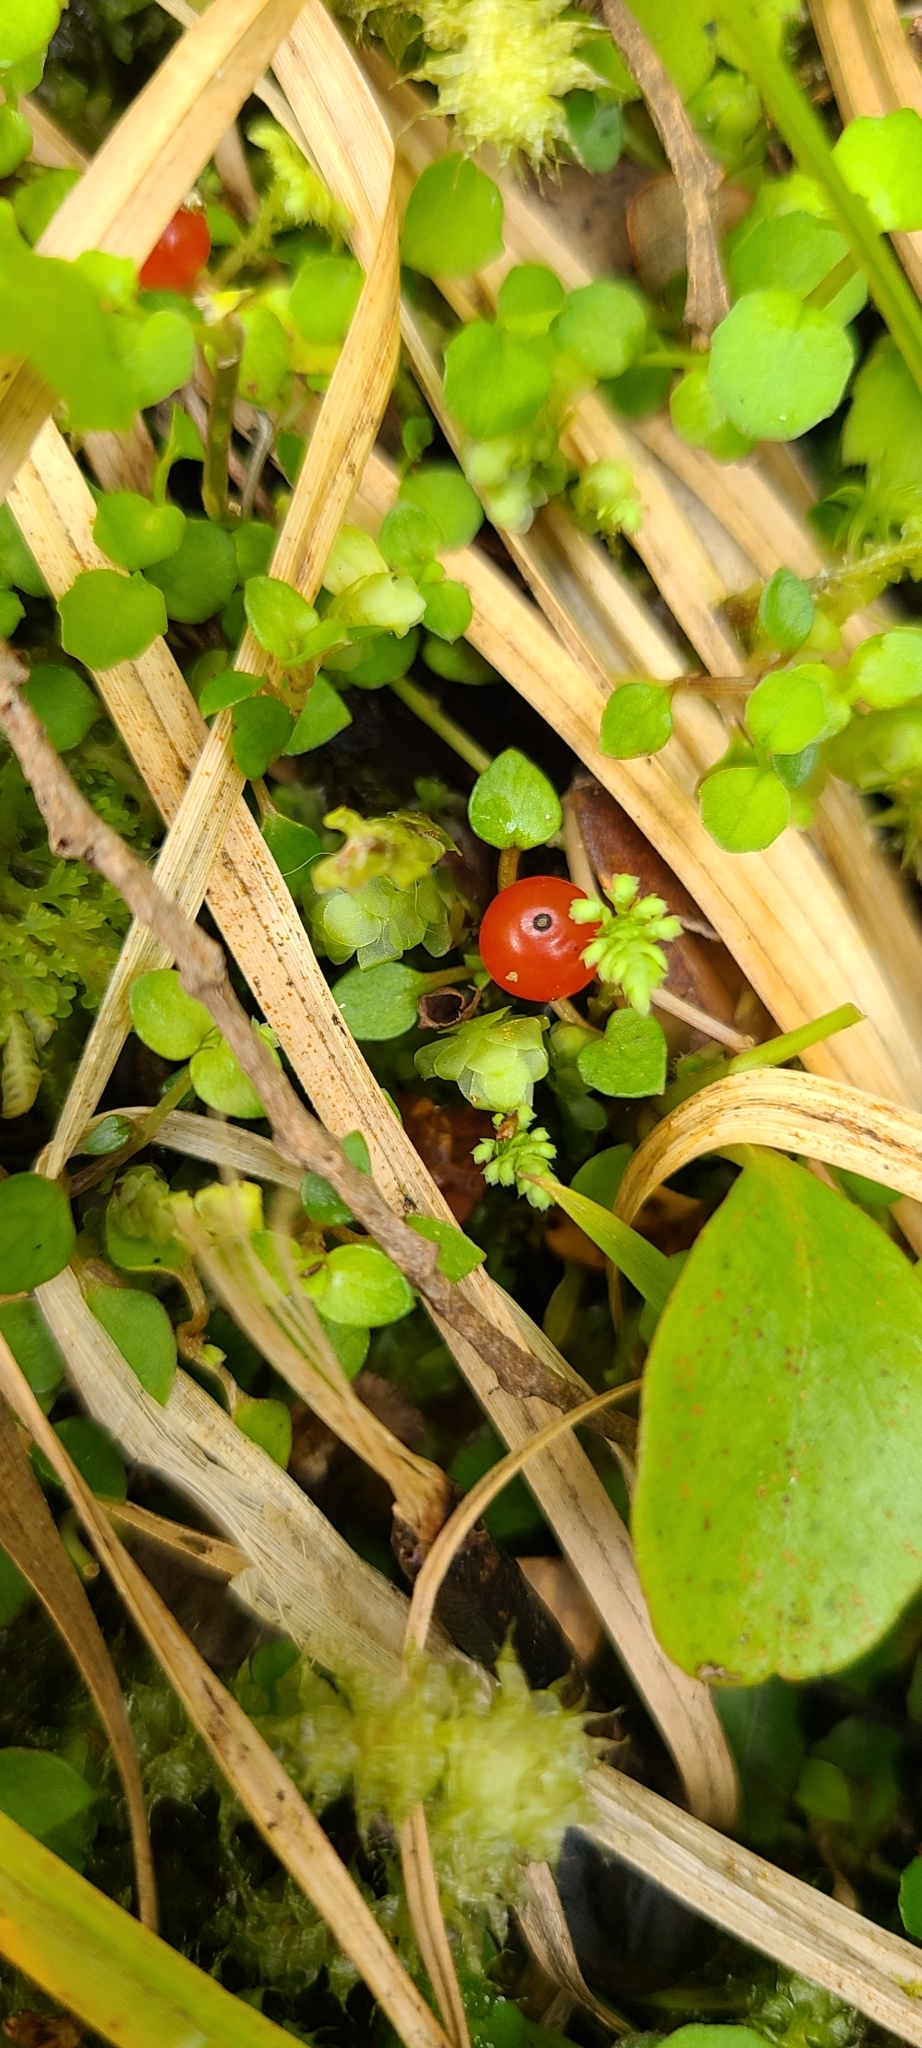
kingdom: Plantae
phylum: Tracheophyta
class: Magnoliopsida
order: Gentianales
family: Rubiaceae
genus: Nertera
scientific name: Nertera granadensis
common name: Beadplant
